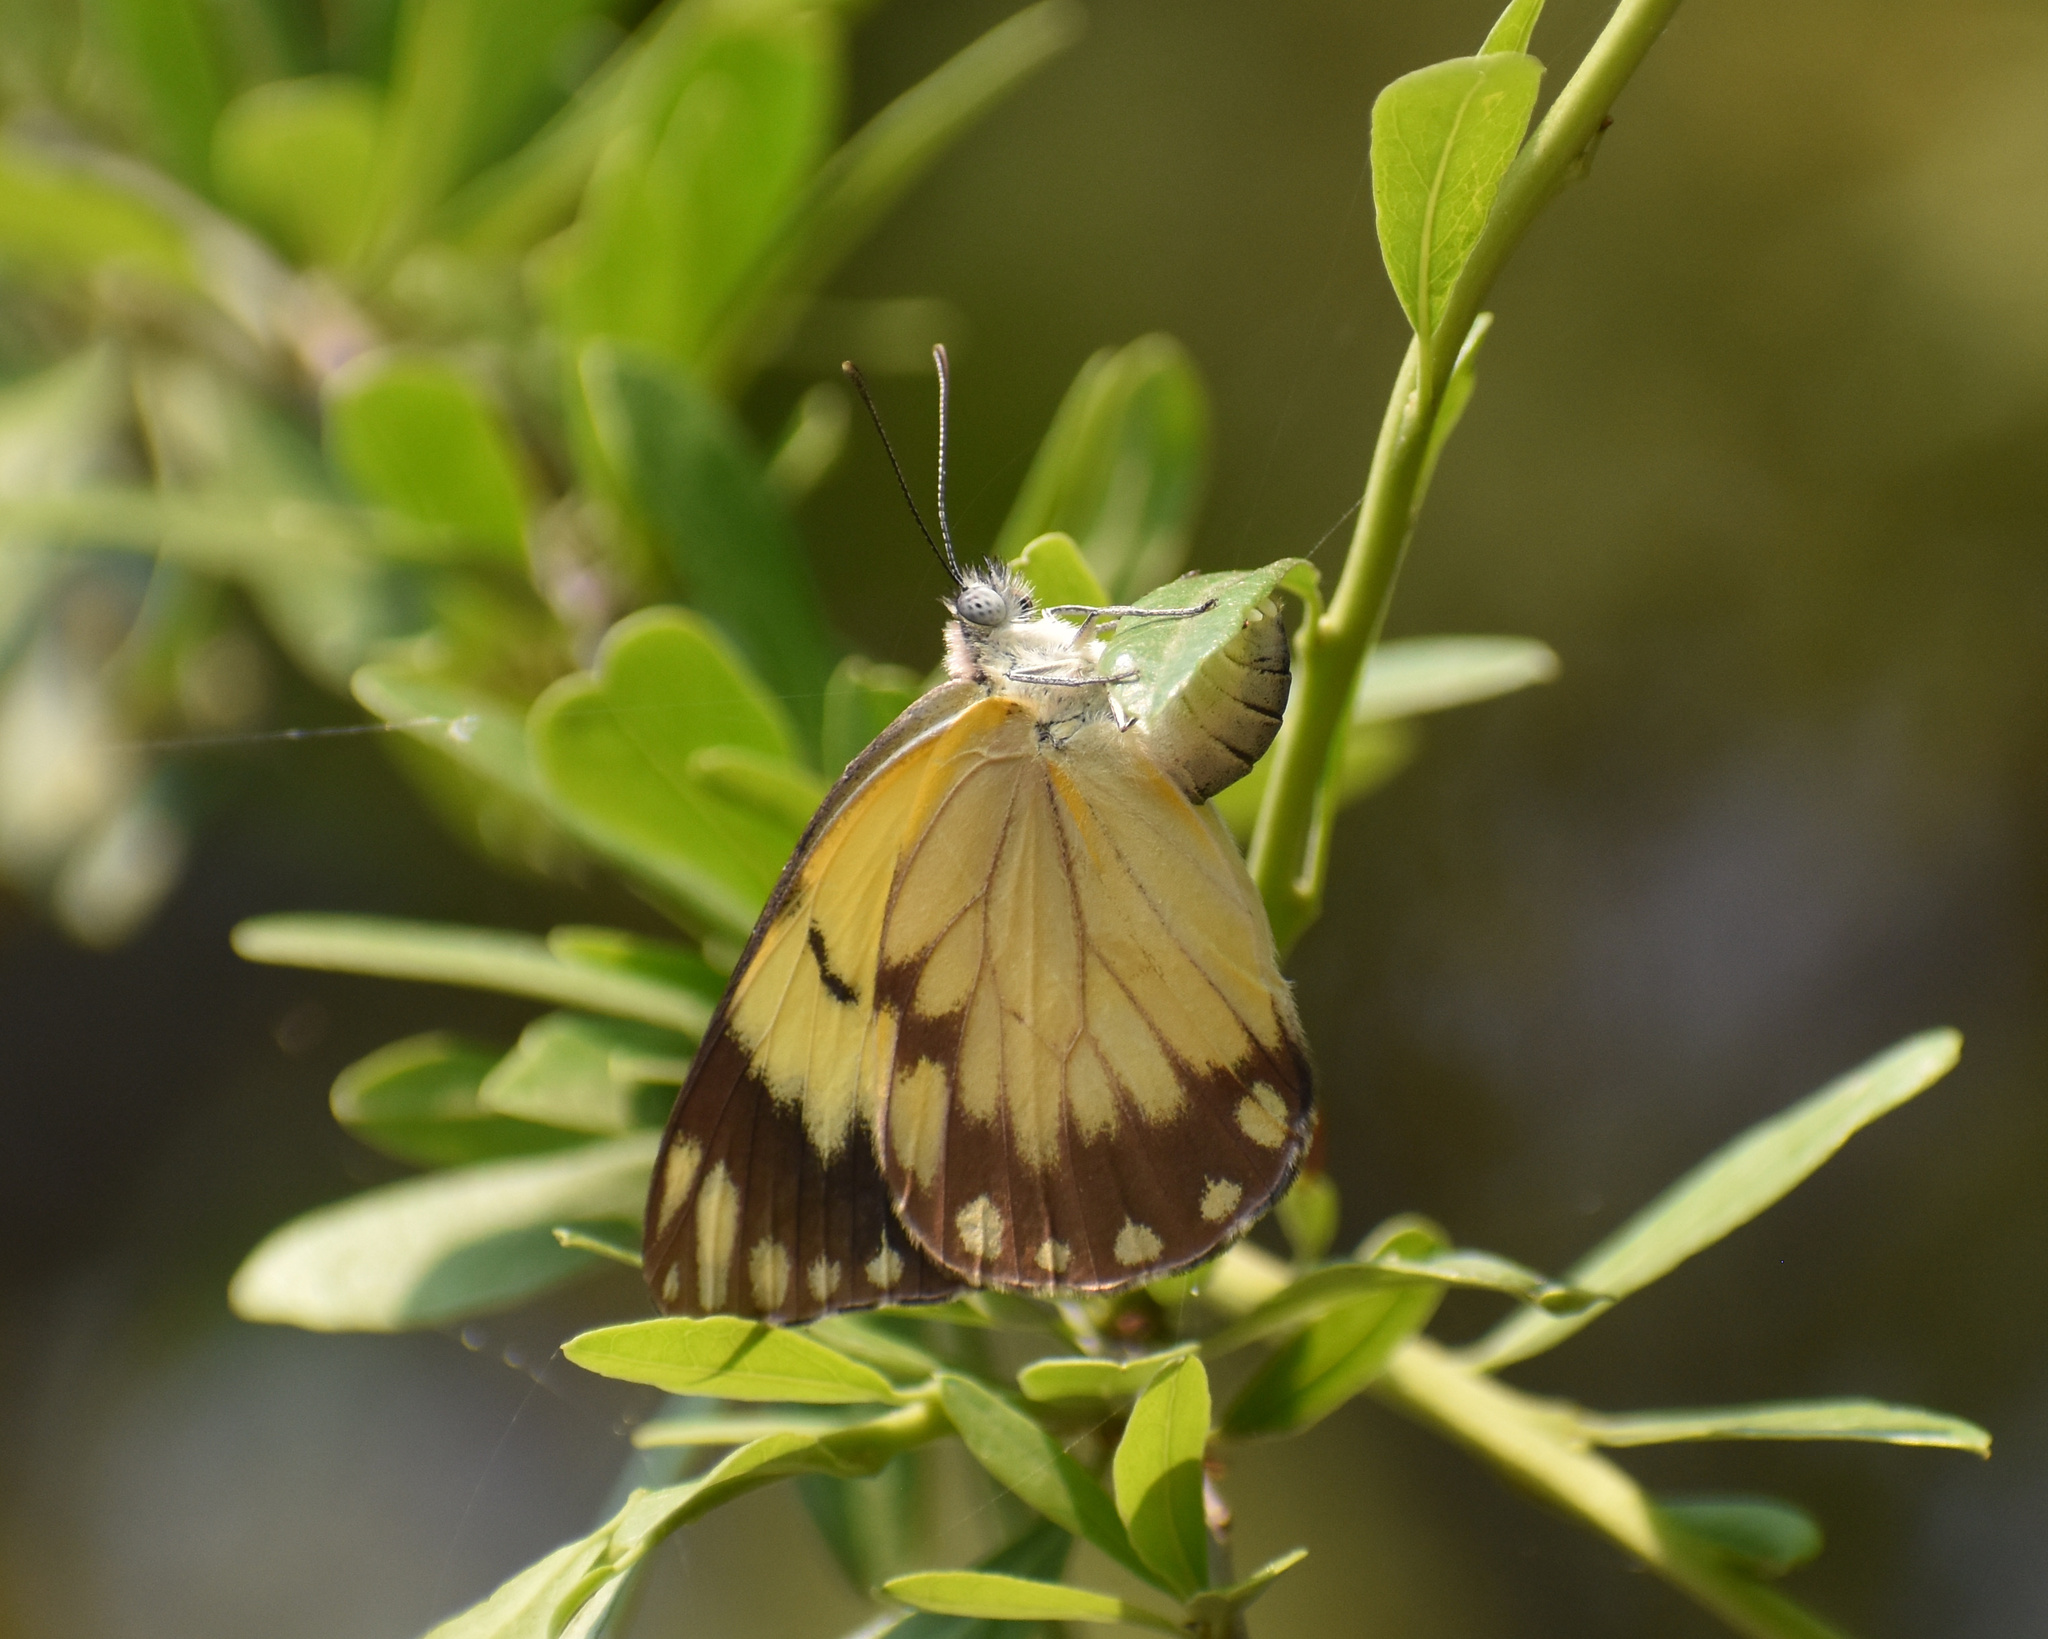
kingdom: Animalia
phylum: Arthropoda
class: Insecta
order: Lepidoptera
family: Pieridae
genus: Belenois
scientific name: Belenois creona
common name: African caper white
